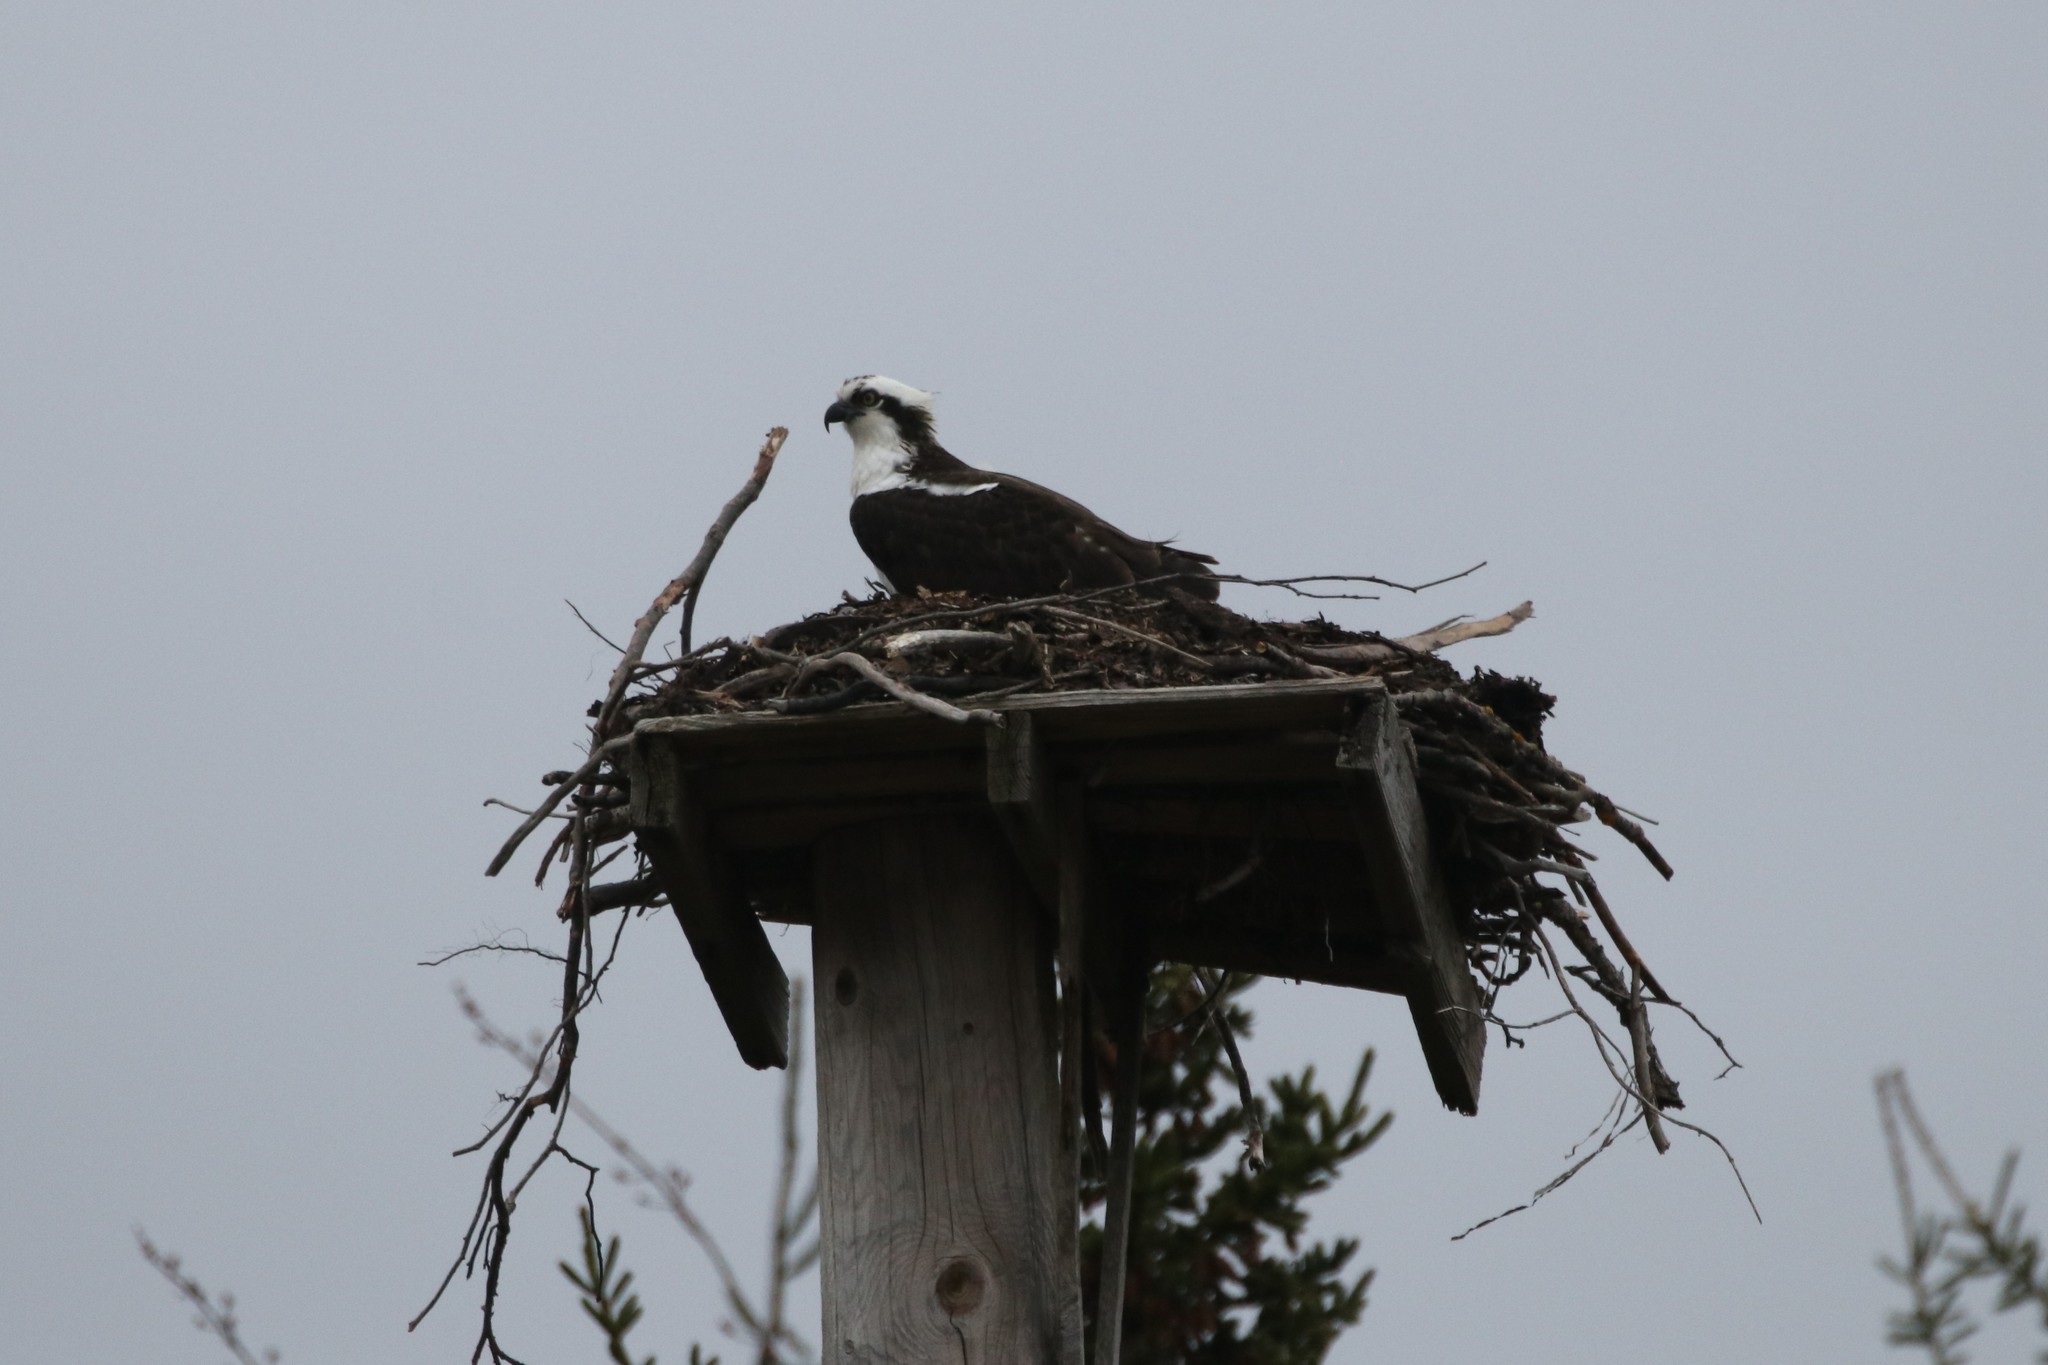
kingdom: Animalia
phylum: Chordata
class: Aves
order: Accipitriformes
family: Pandionidae
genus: Pandion
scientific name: Pandion haliaetus
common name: Osprey
